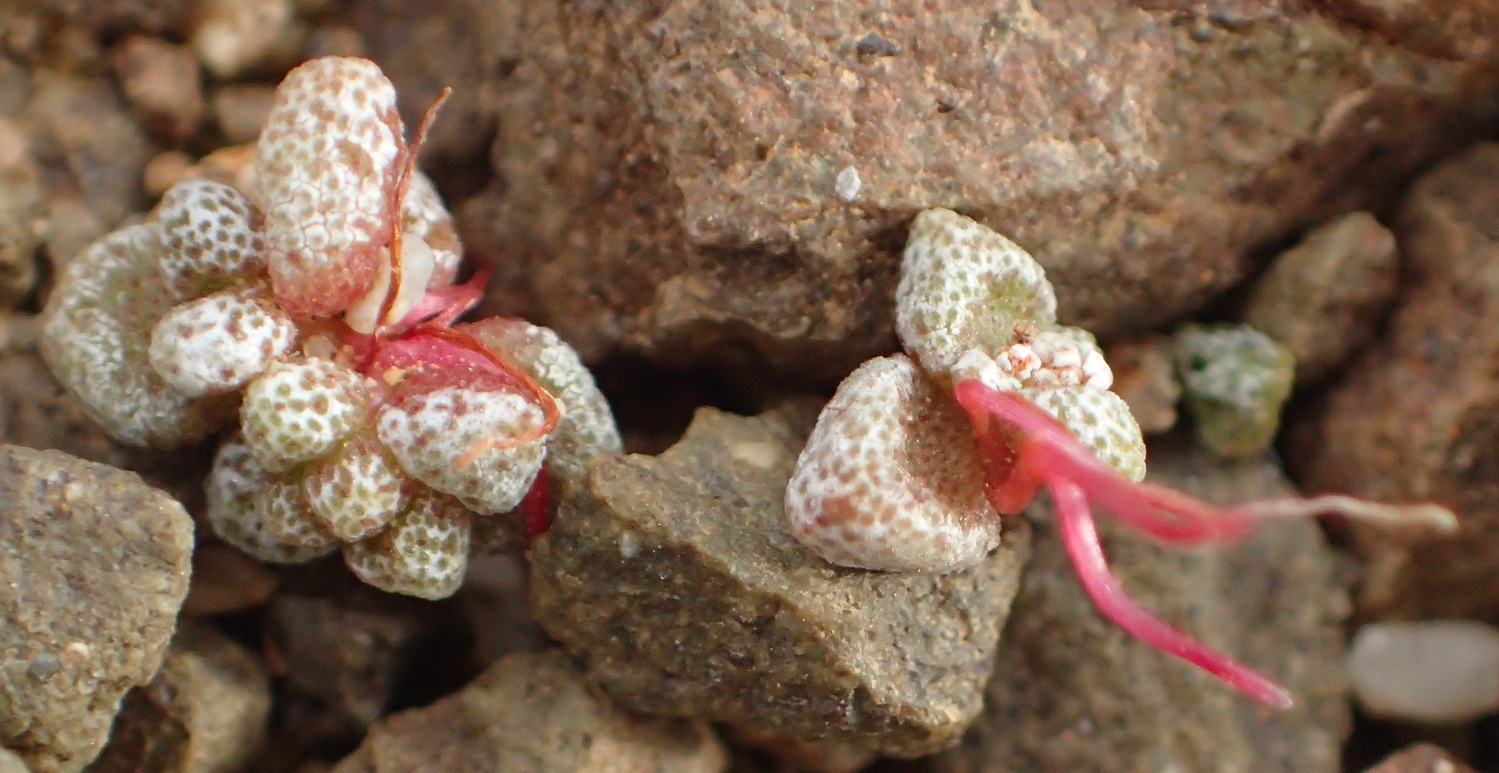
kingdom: Plantae
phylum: Tracheophyta
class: Magnoliopsida
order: Saxifragales
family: Crassulaceae
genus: Crassula
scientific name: Crassula corallina
